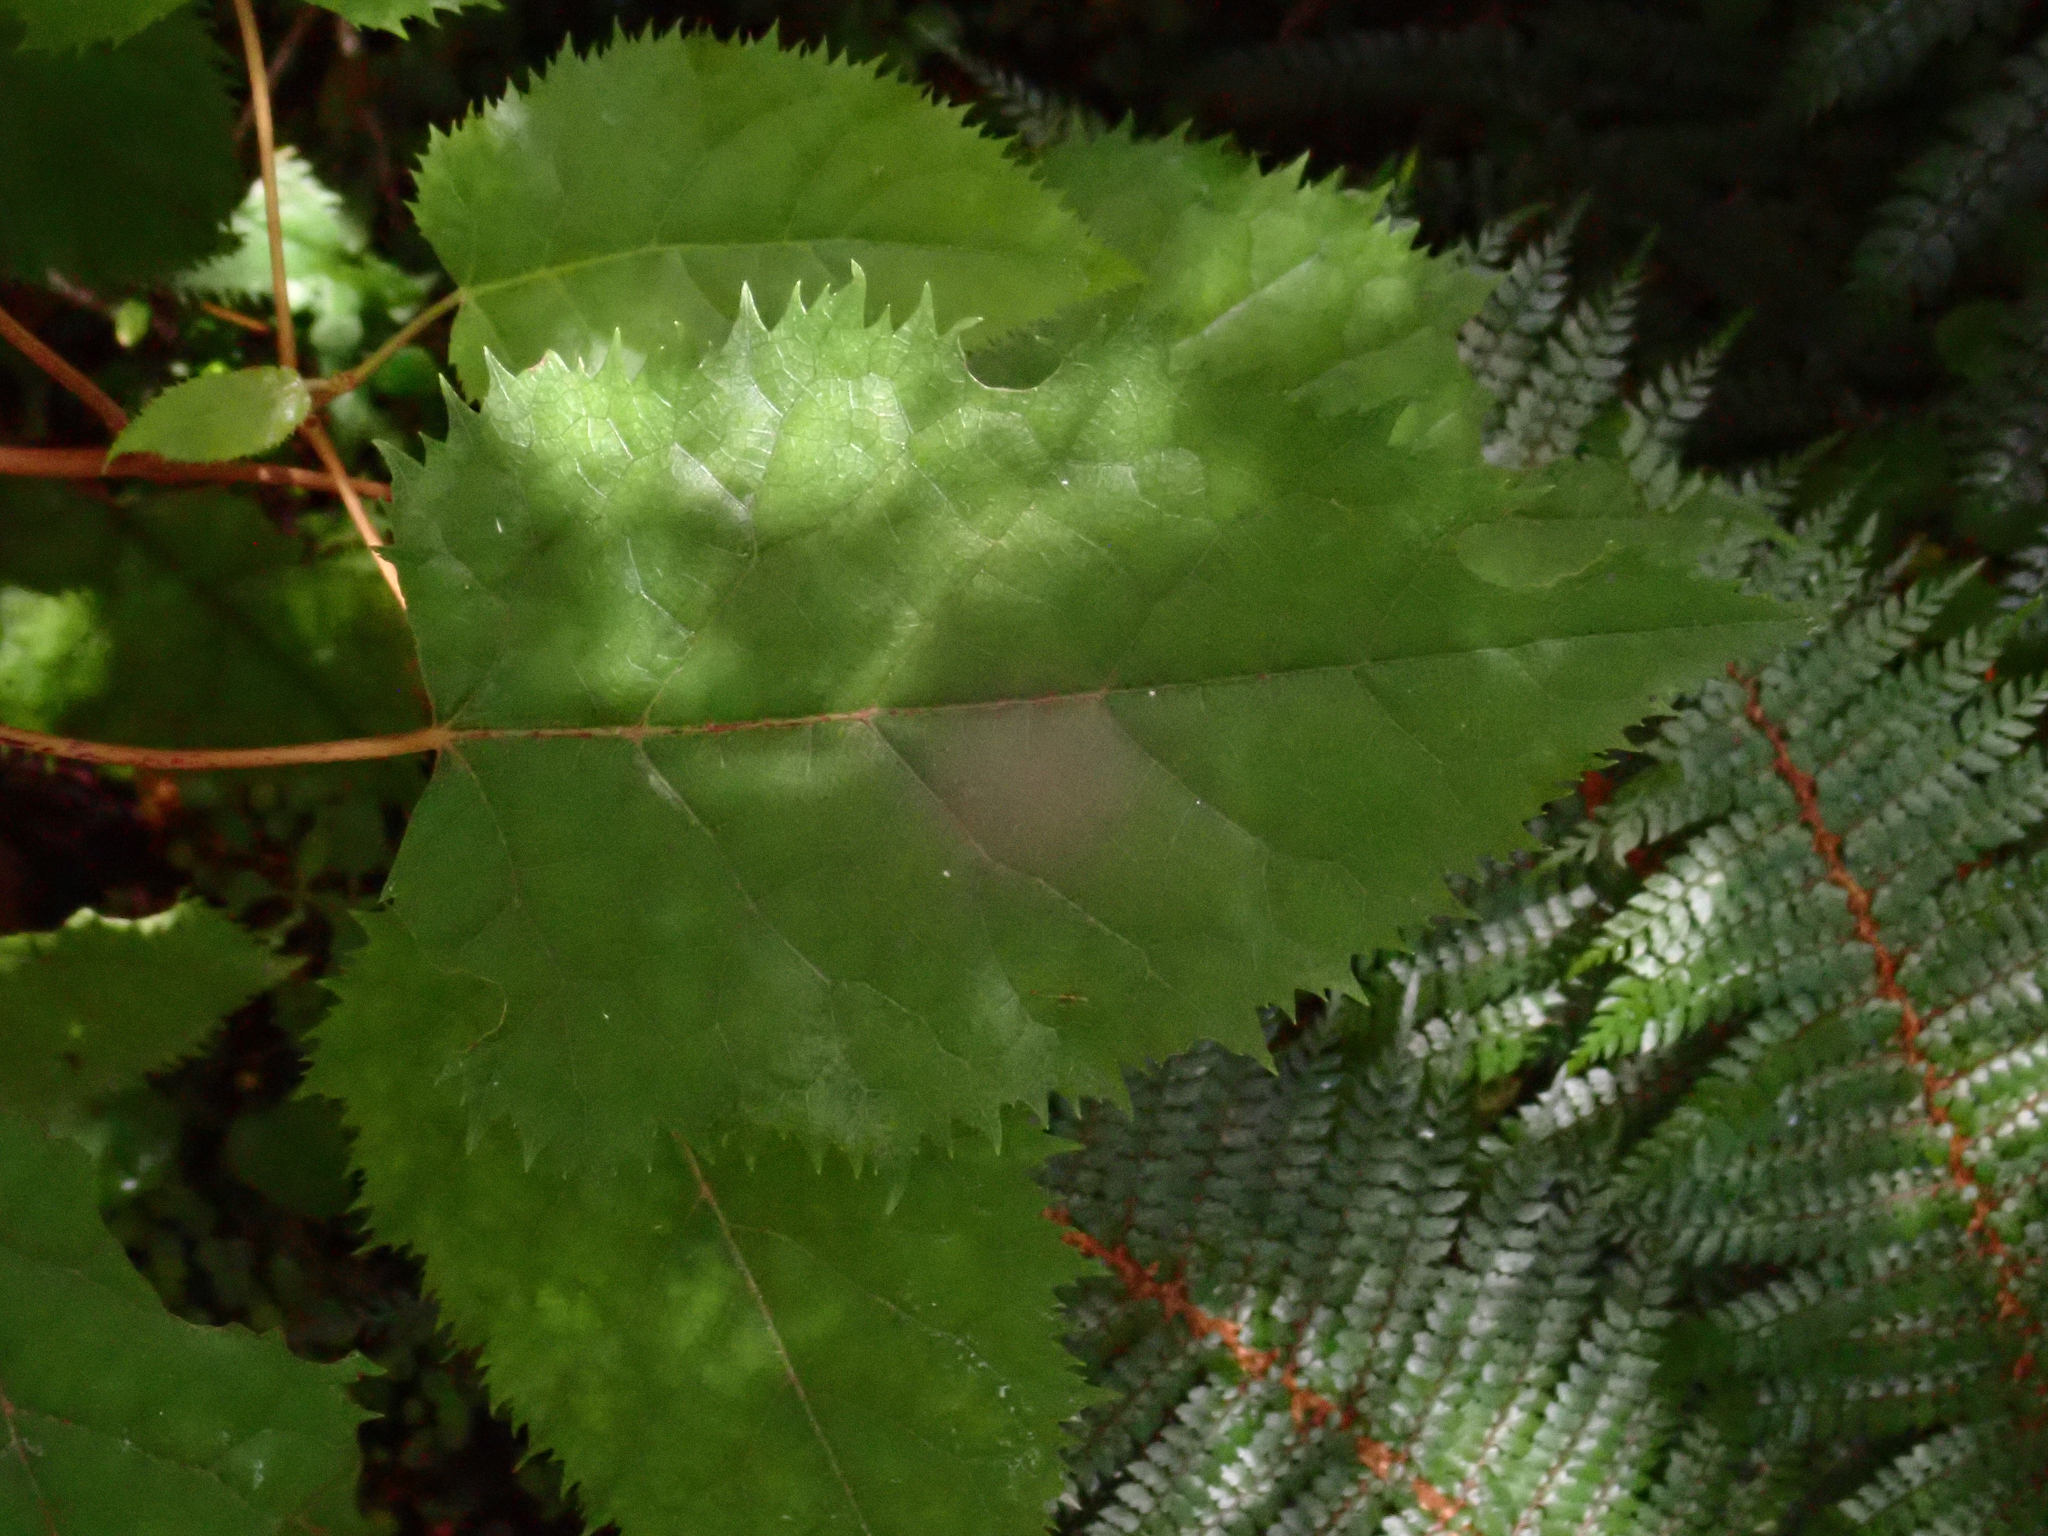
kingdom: Plantae
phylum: Tracheophyta
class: Magnoliopsida
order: Oxalidales
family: Elaeocarpaceae
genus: Aristotelia
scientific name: Aristotelia serrata
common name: New zealand wineberry
